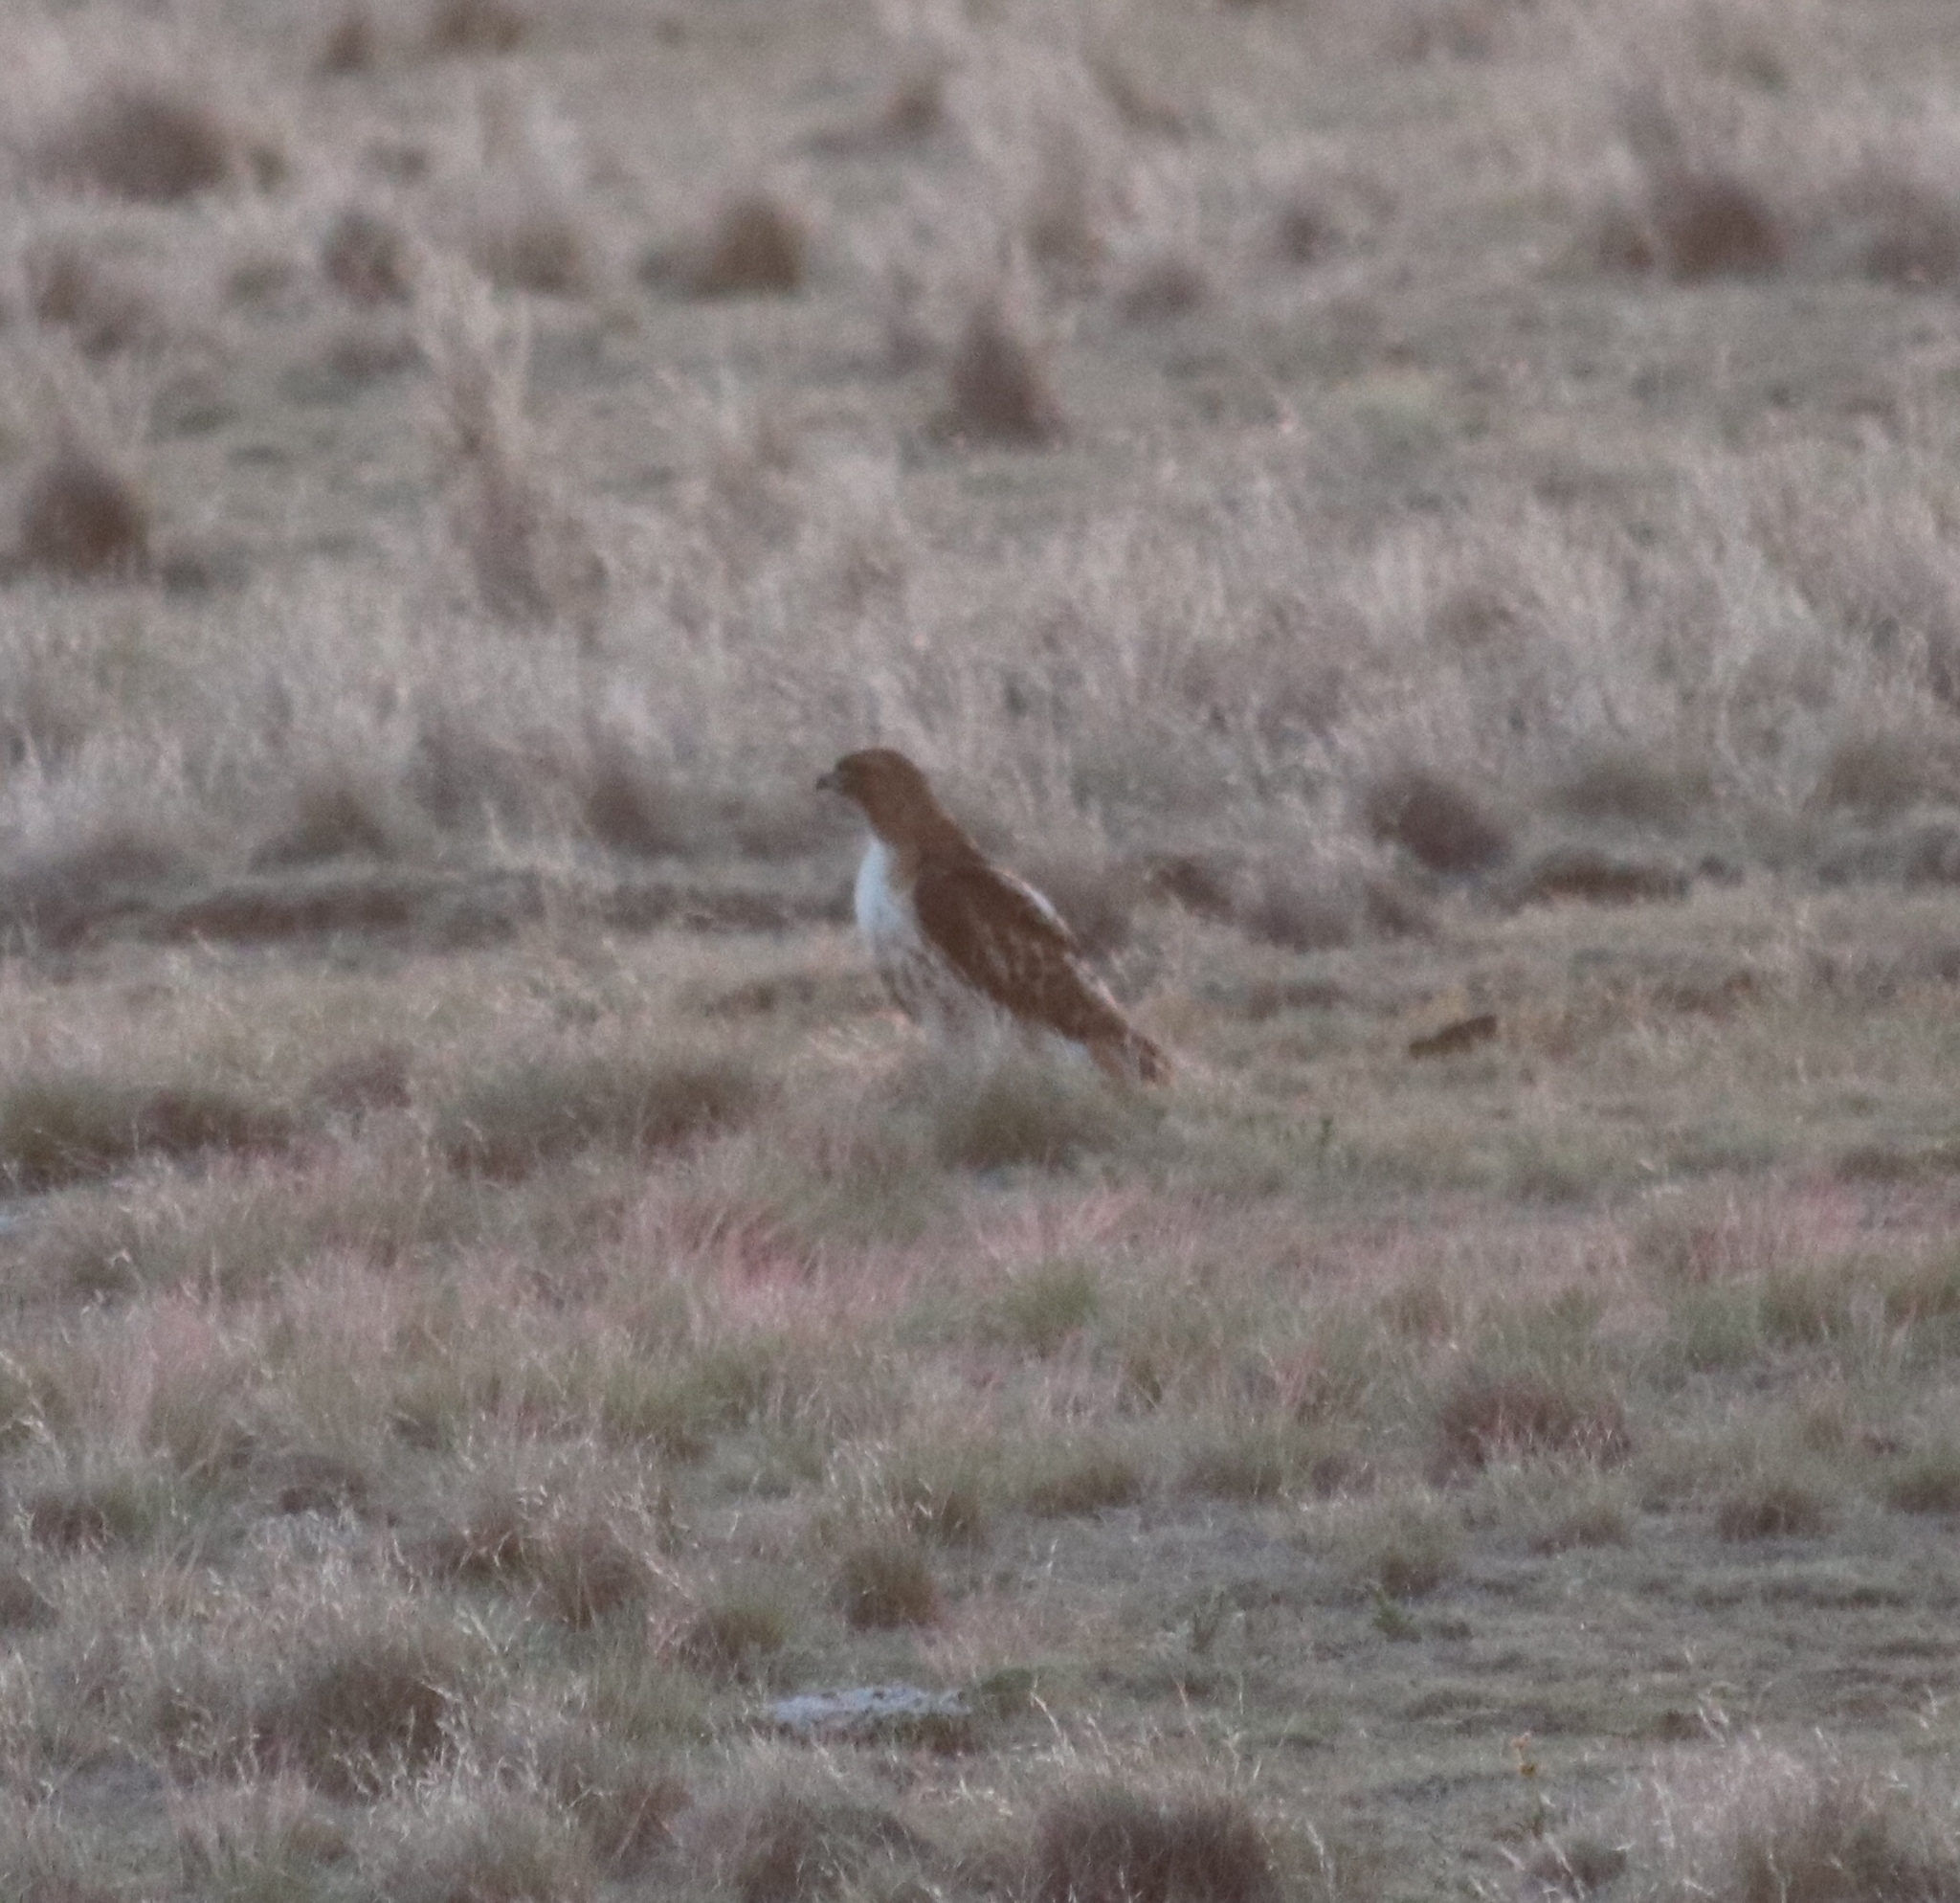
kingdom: Animalia
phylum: Chordata
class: Aves
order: Accipitriformes
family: Accipitridae
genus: Buteo
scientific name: Buteo jamaicensis
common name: Red-tailed hawk
